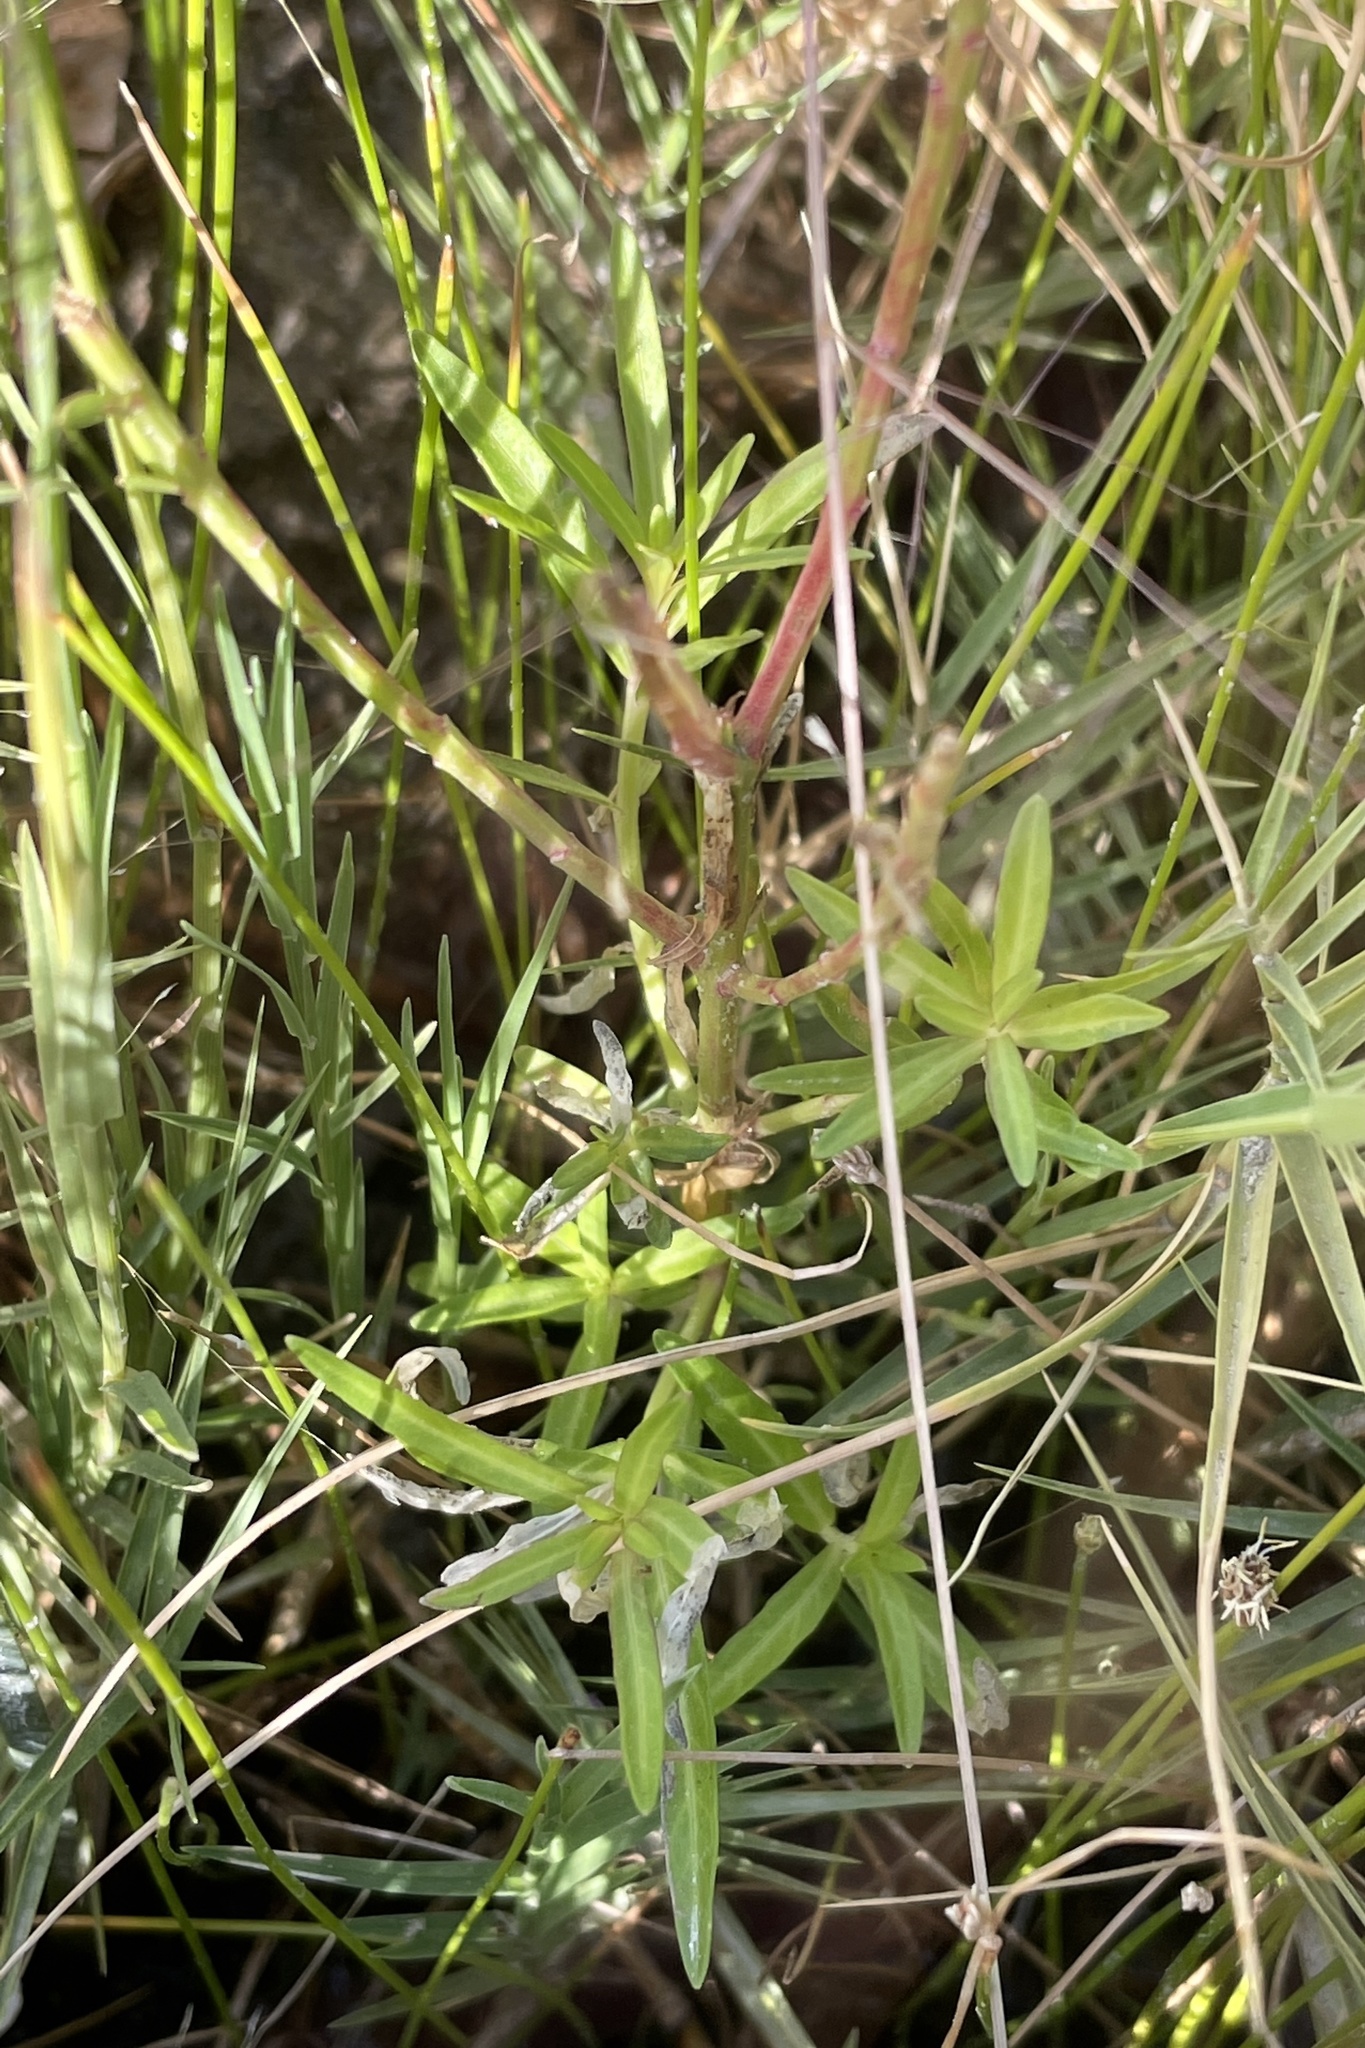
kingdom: Plantae
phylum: Tracheophyta
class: Magnoliopsida
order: Myrtales
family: Lythraceae
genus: Lythrum
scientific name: Lythrum californicum
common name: California loosestrife
